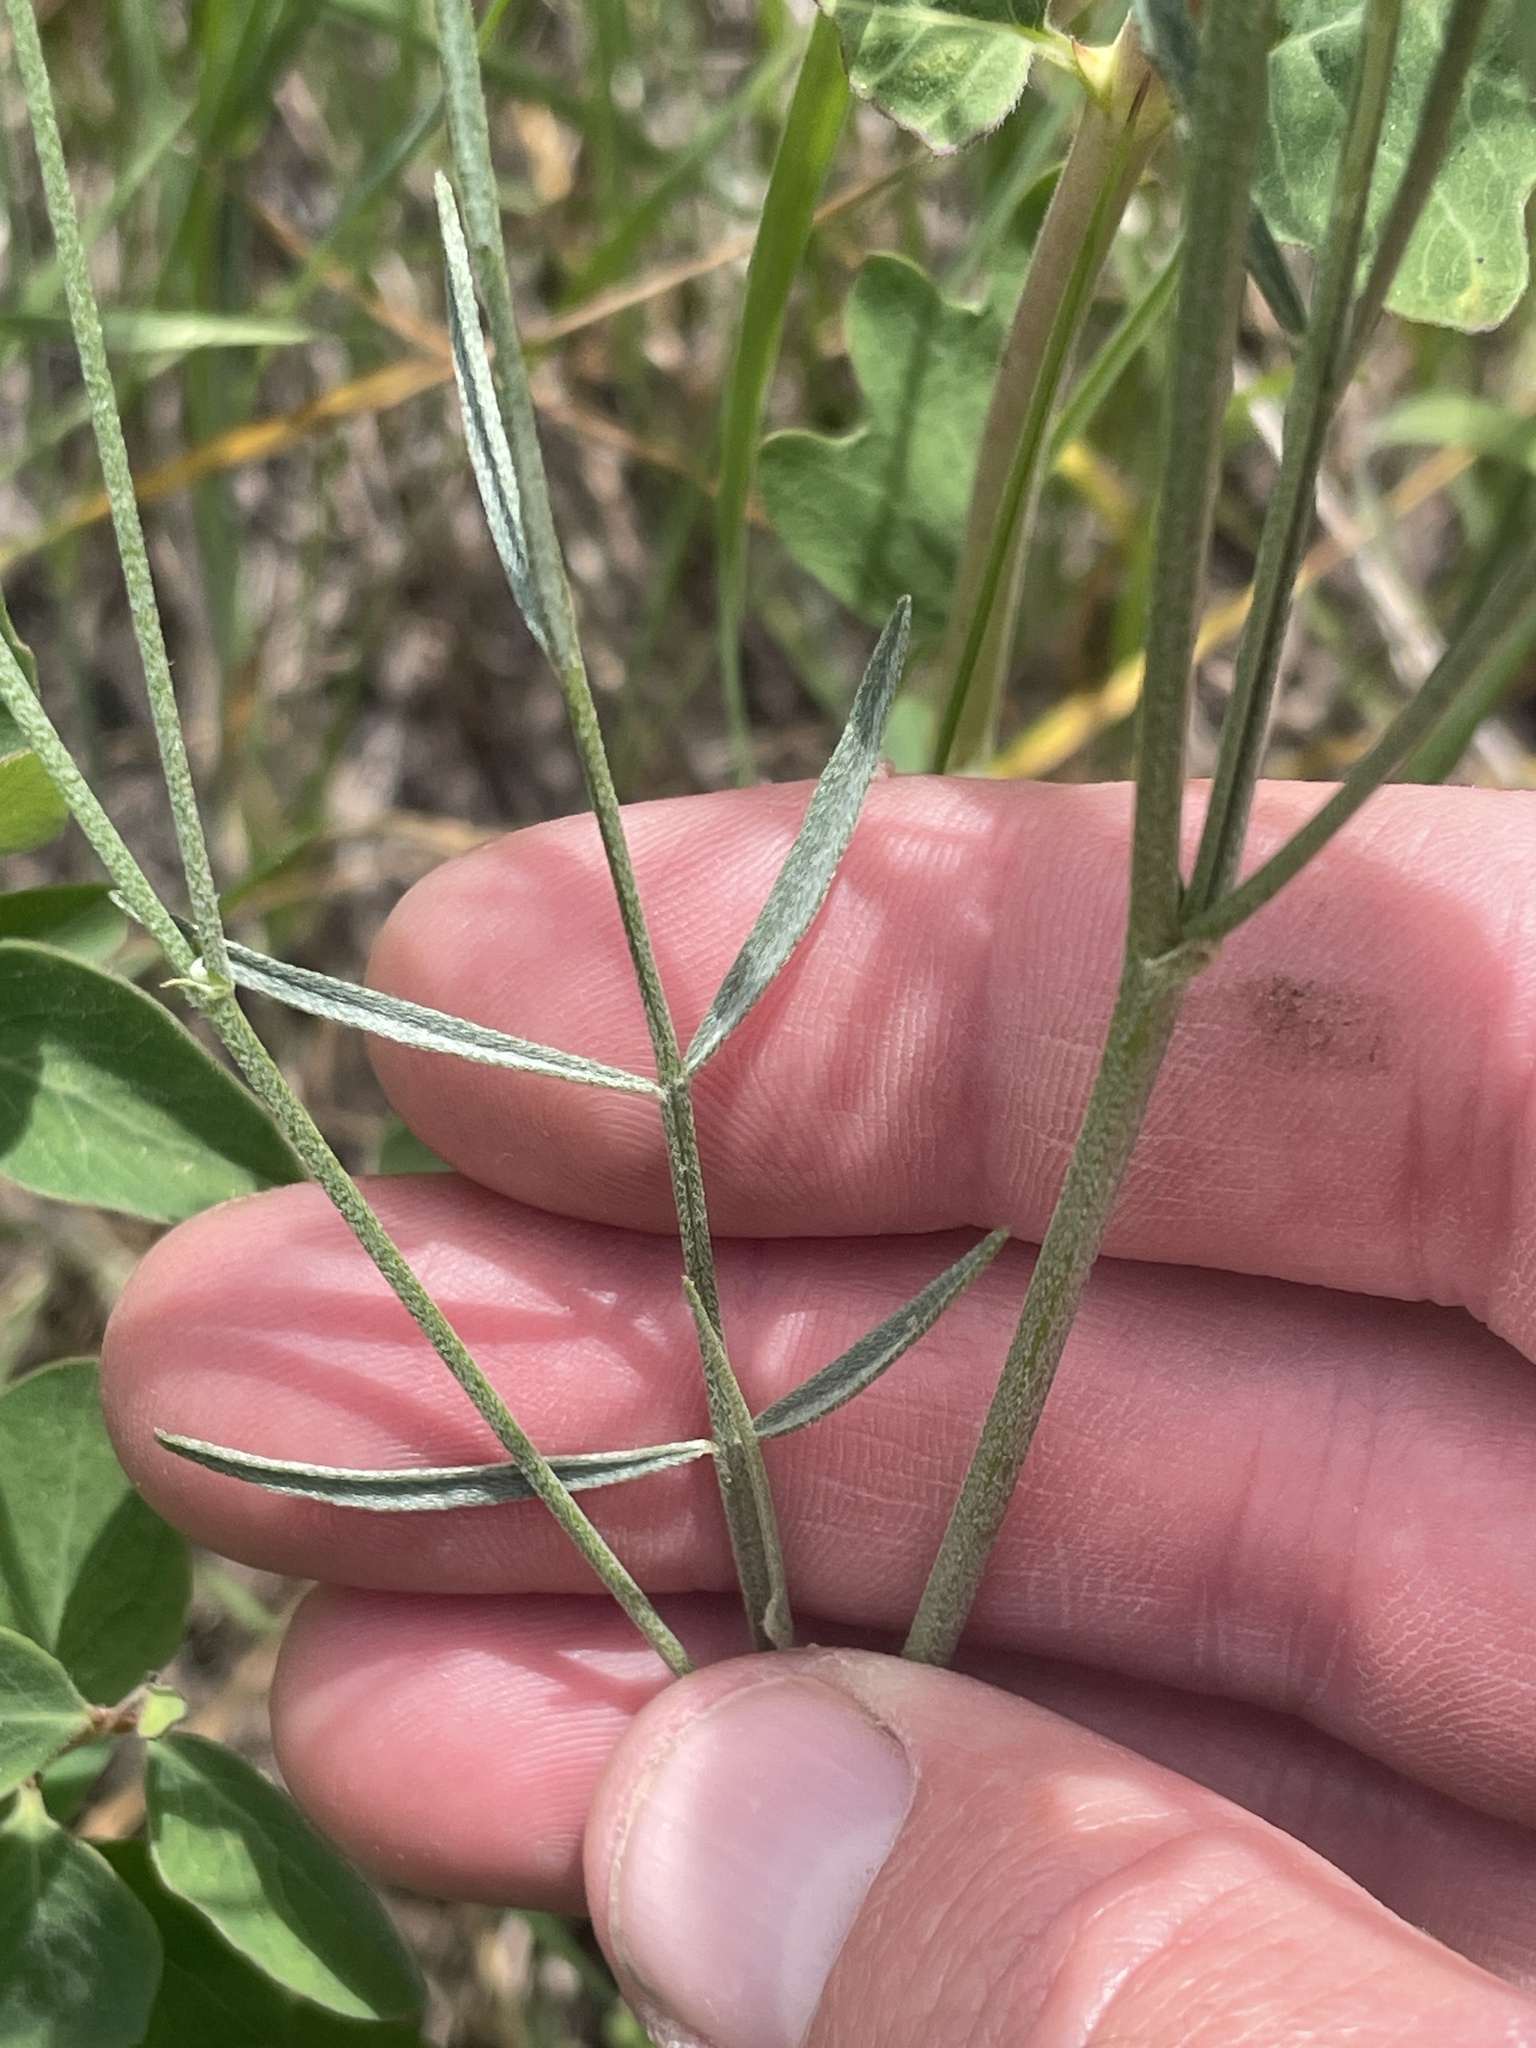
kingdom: Plantae
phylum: Tracheophyta
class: Magnoliopsida
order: Fabales
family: Fabaceae
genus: Astragalus
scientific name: Astragalus convallarius
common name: Lesser rushy milk-vetch
